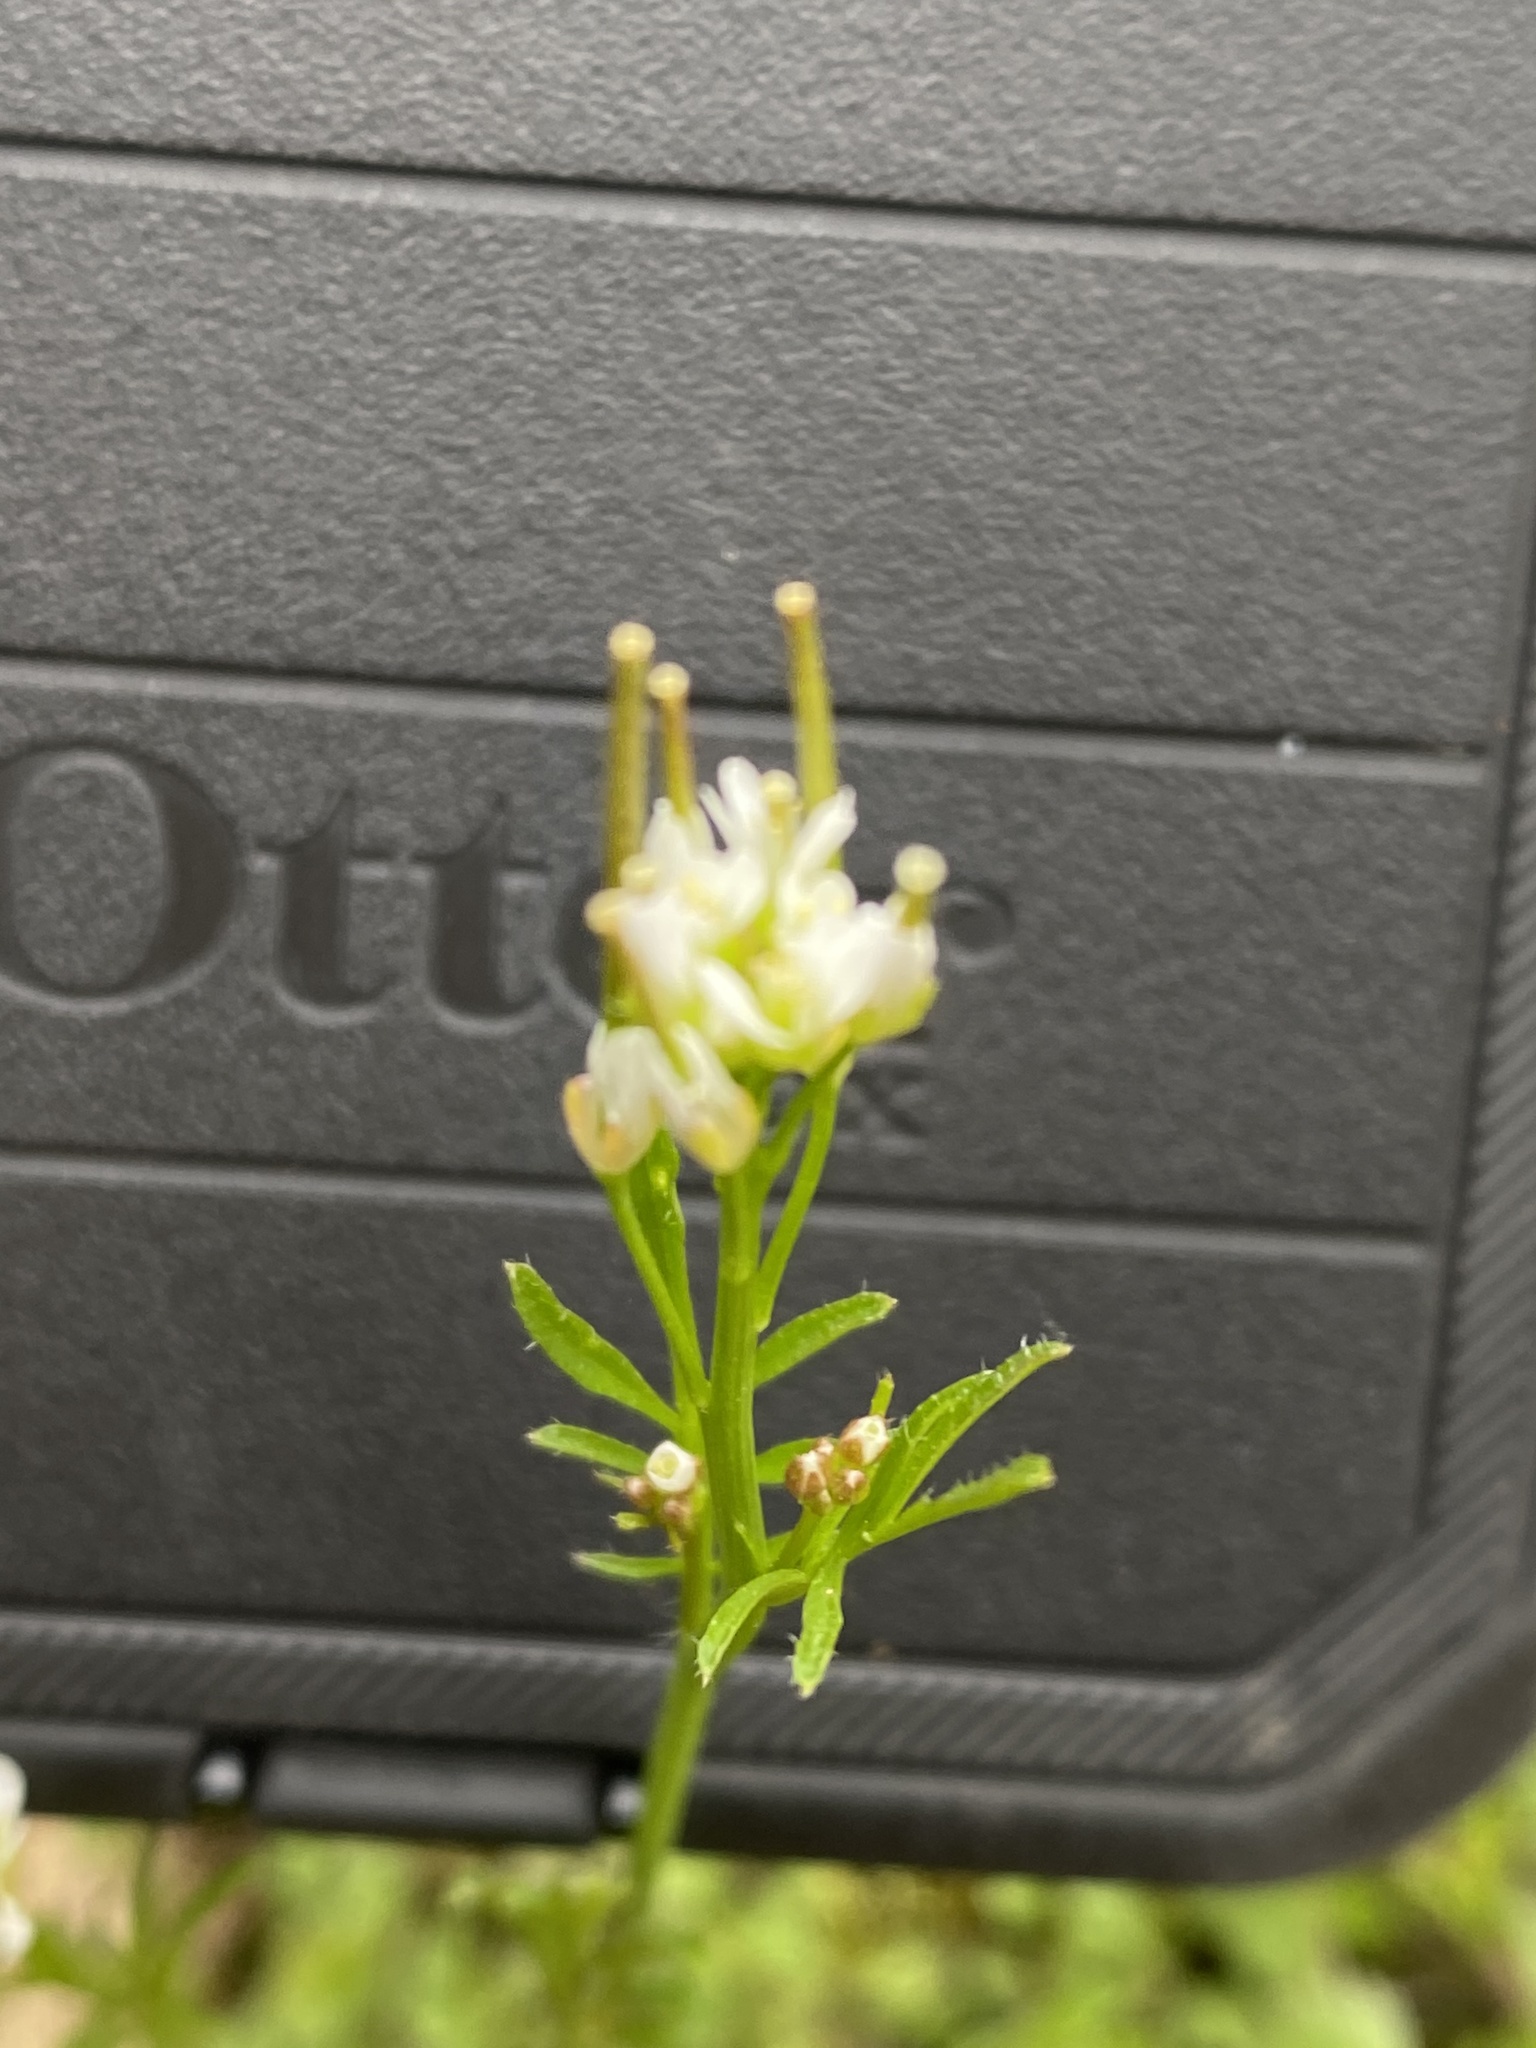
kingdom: Plantae
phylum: Tracheophyta
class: Magnoliopsida
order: Brassicales
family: Brassicaceae
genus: Cardamine
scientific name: Cardamine hirsuta
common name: Hairy bittercress
